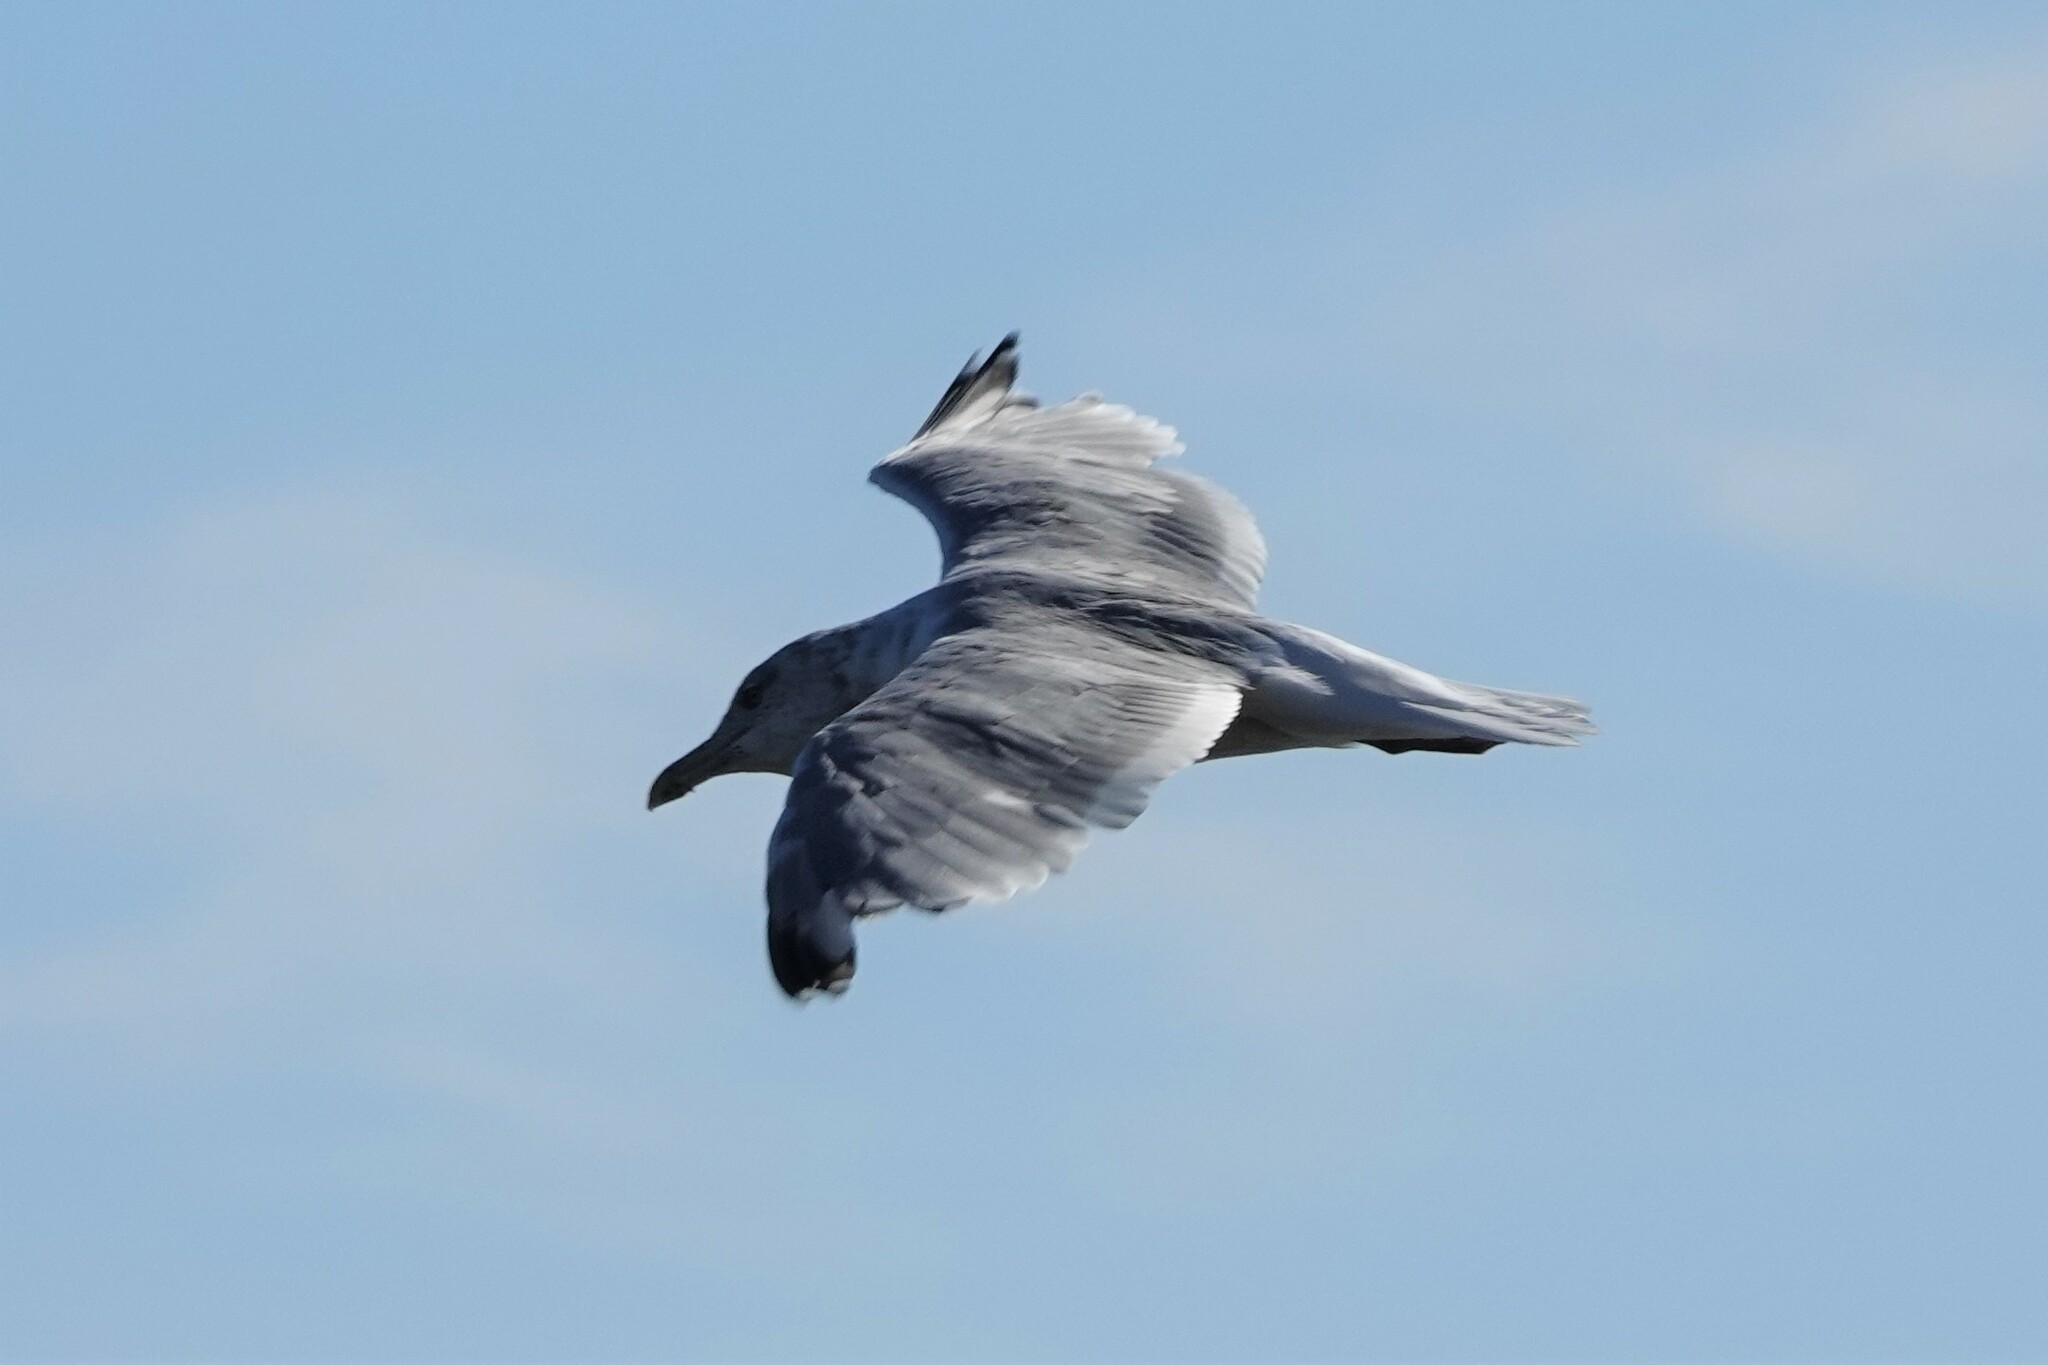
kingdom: Animalia
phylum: Chordata
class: Aves
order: Charadriiformes
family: Laridae
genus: Larus
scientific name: Larus argentatus
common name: Herring gull
